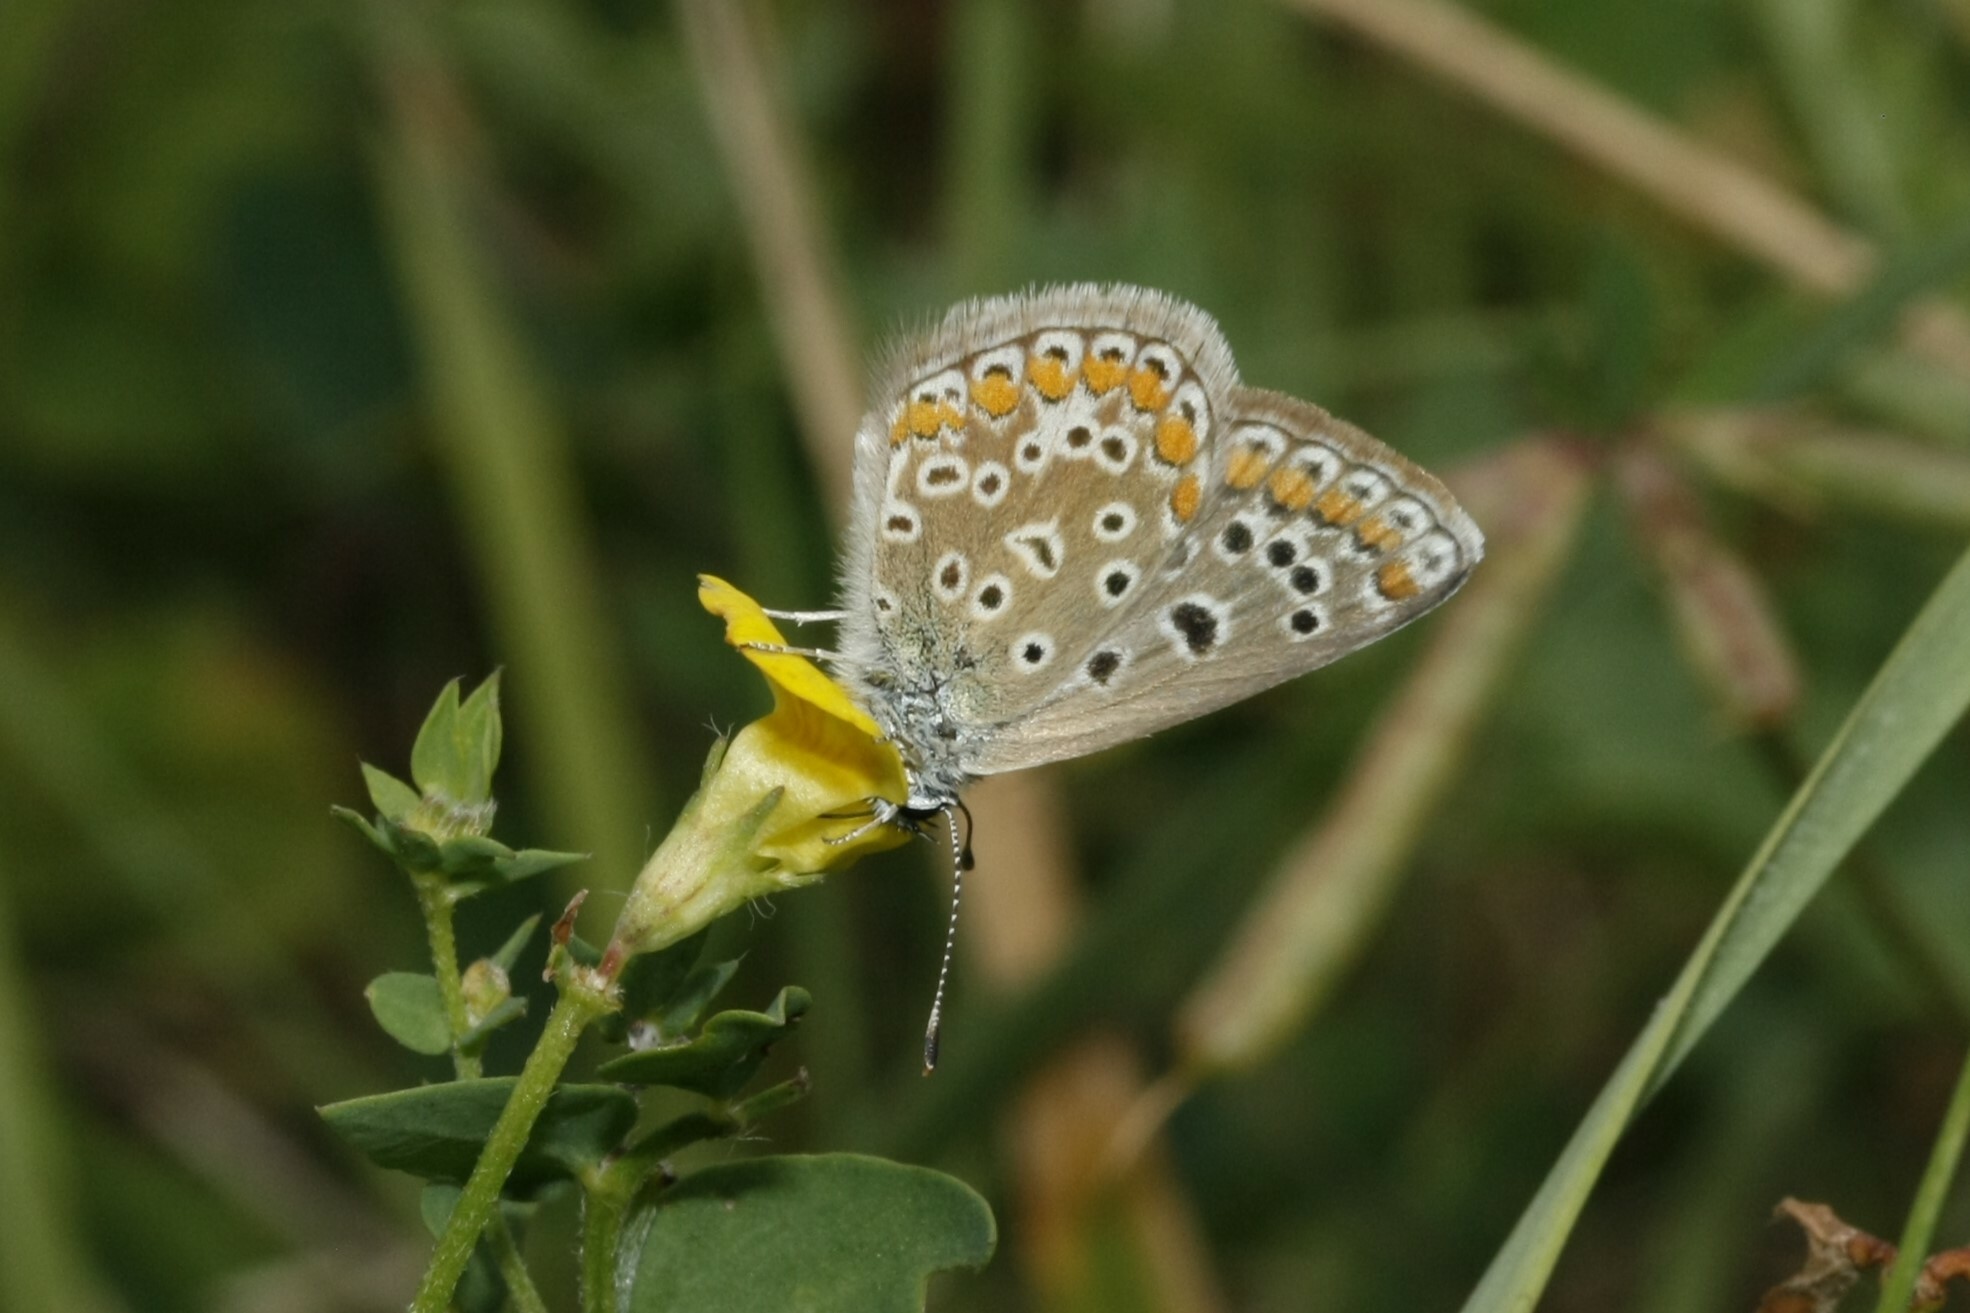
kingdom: Animalia
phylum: Arthropoda
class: Insecta
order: Lepidoptera
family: Lycaenidae
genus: Polyommatus
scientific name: Polyommatus icarus
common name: Common blue
